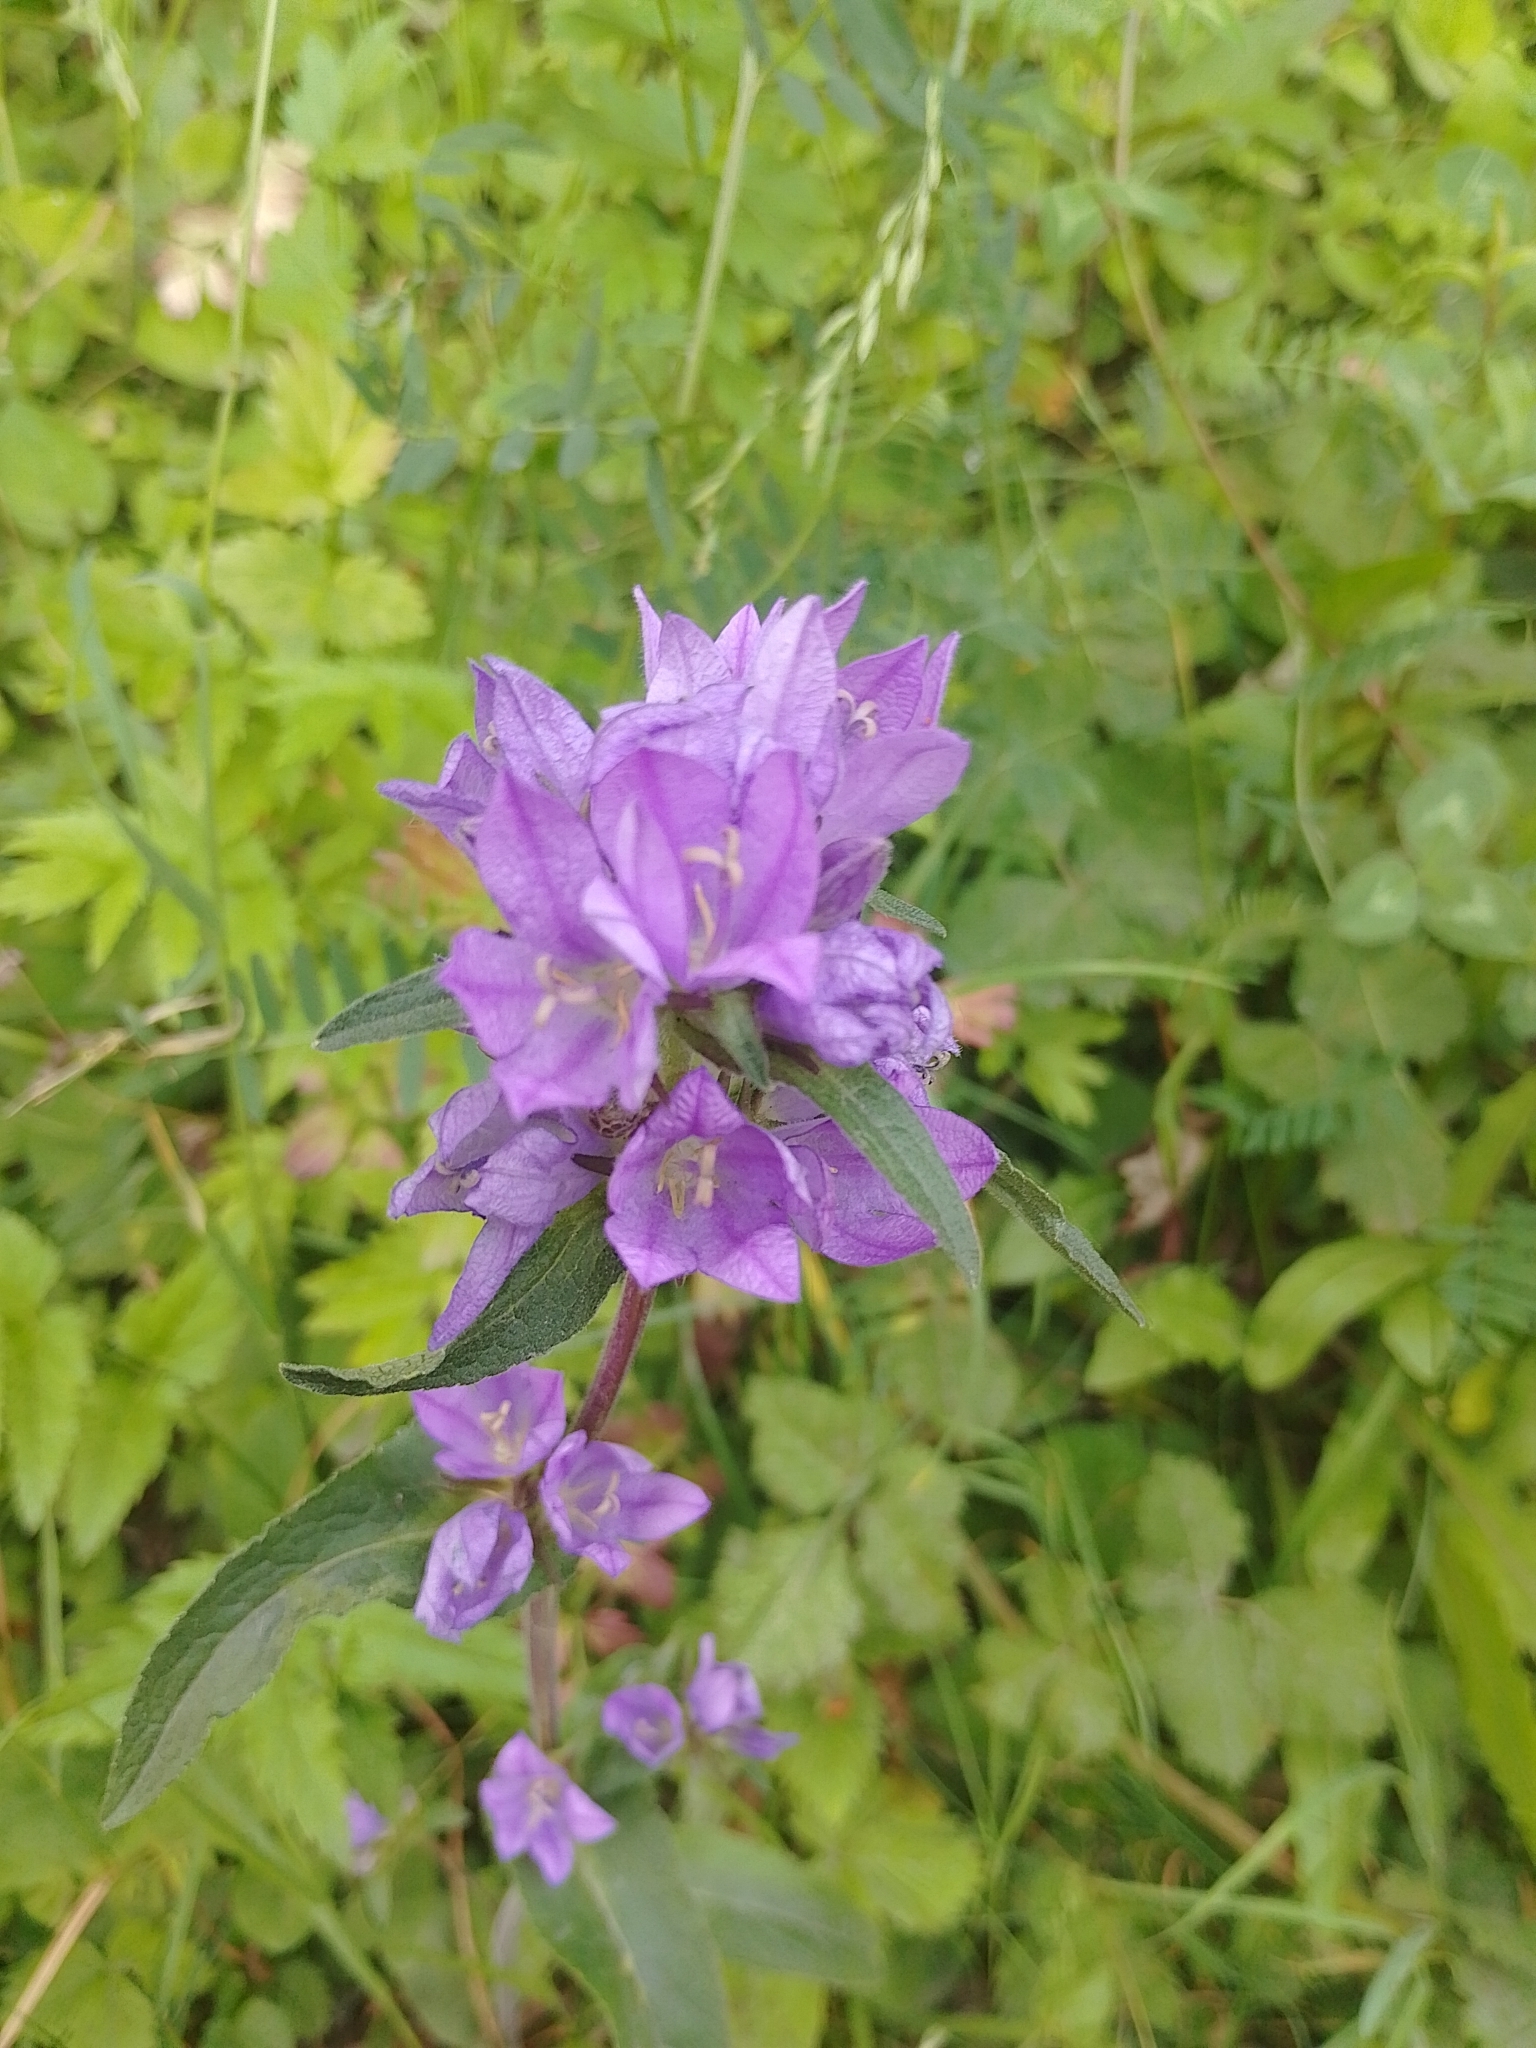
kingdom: Plantae
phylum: Tracheophyta
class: Magnoliopsida
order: Asterales
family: Campanulaceae
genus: Campanula
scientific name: Campanula glomerata
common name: Clustered bellflower
